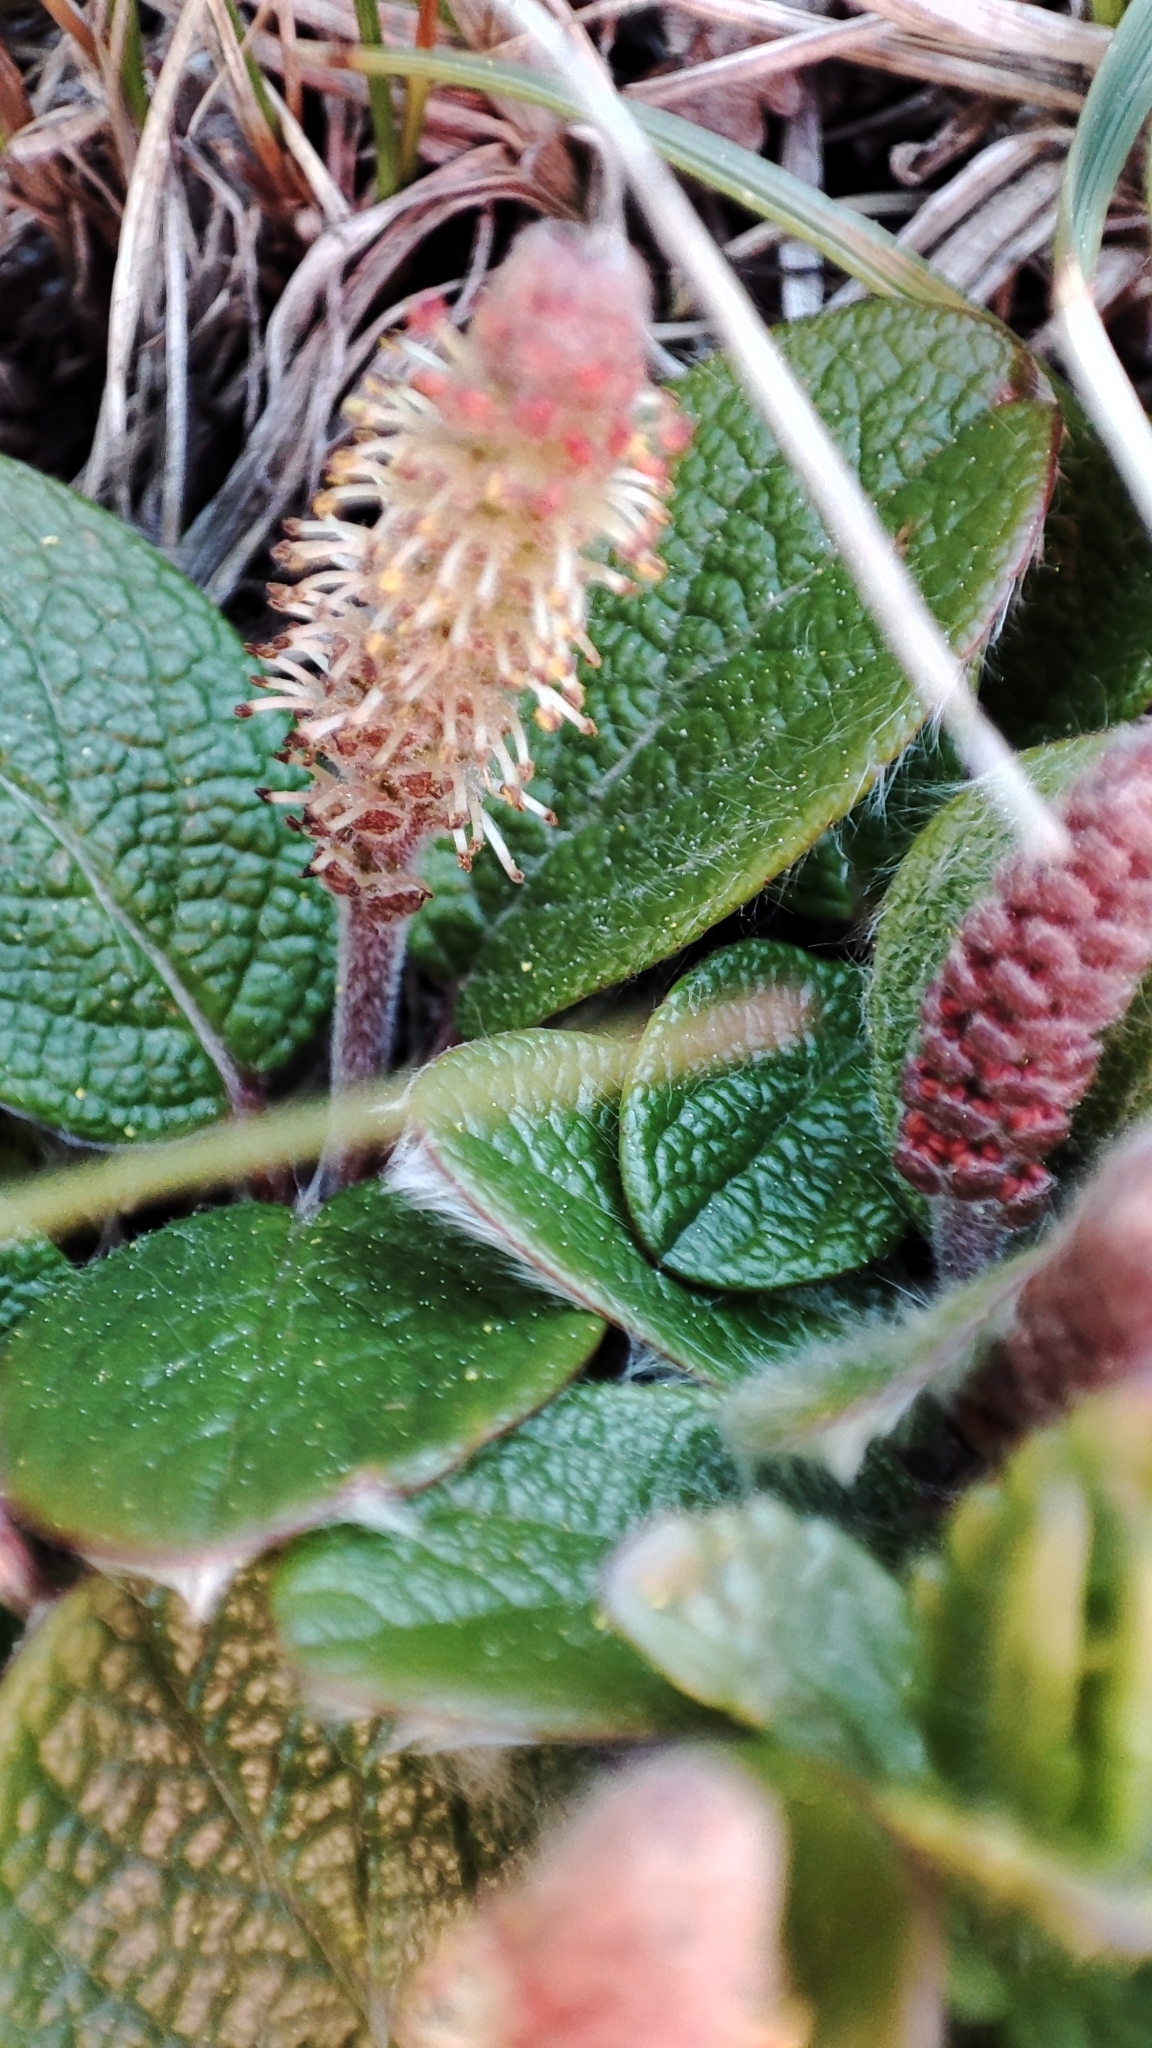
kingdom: Plantae
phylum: Tracheophyta
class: Magnoliopsida
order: Malpighiales
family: Salicaceae
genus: Salix
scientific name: Salix reticulata
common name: Net-leaved willow
